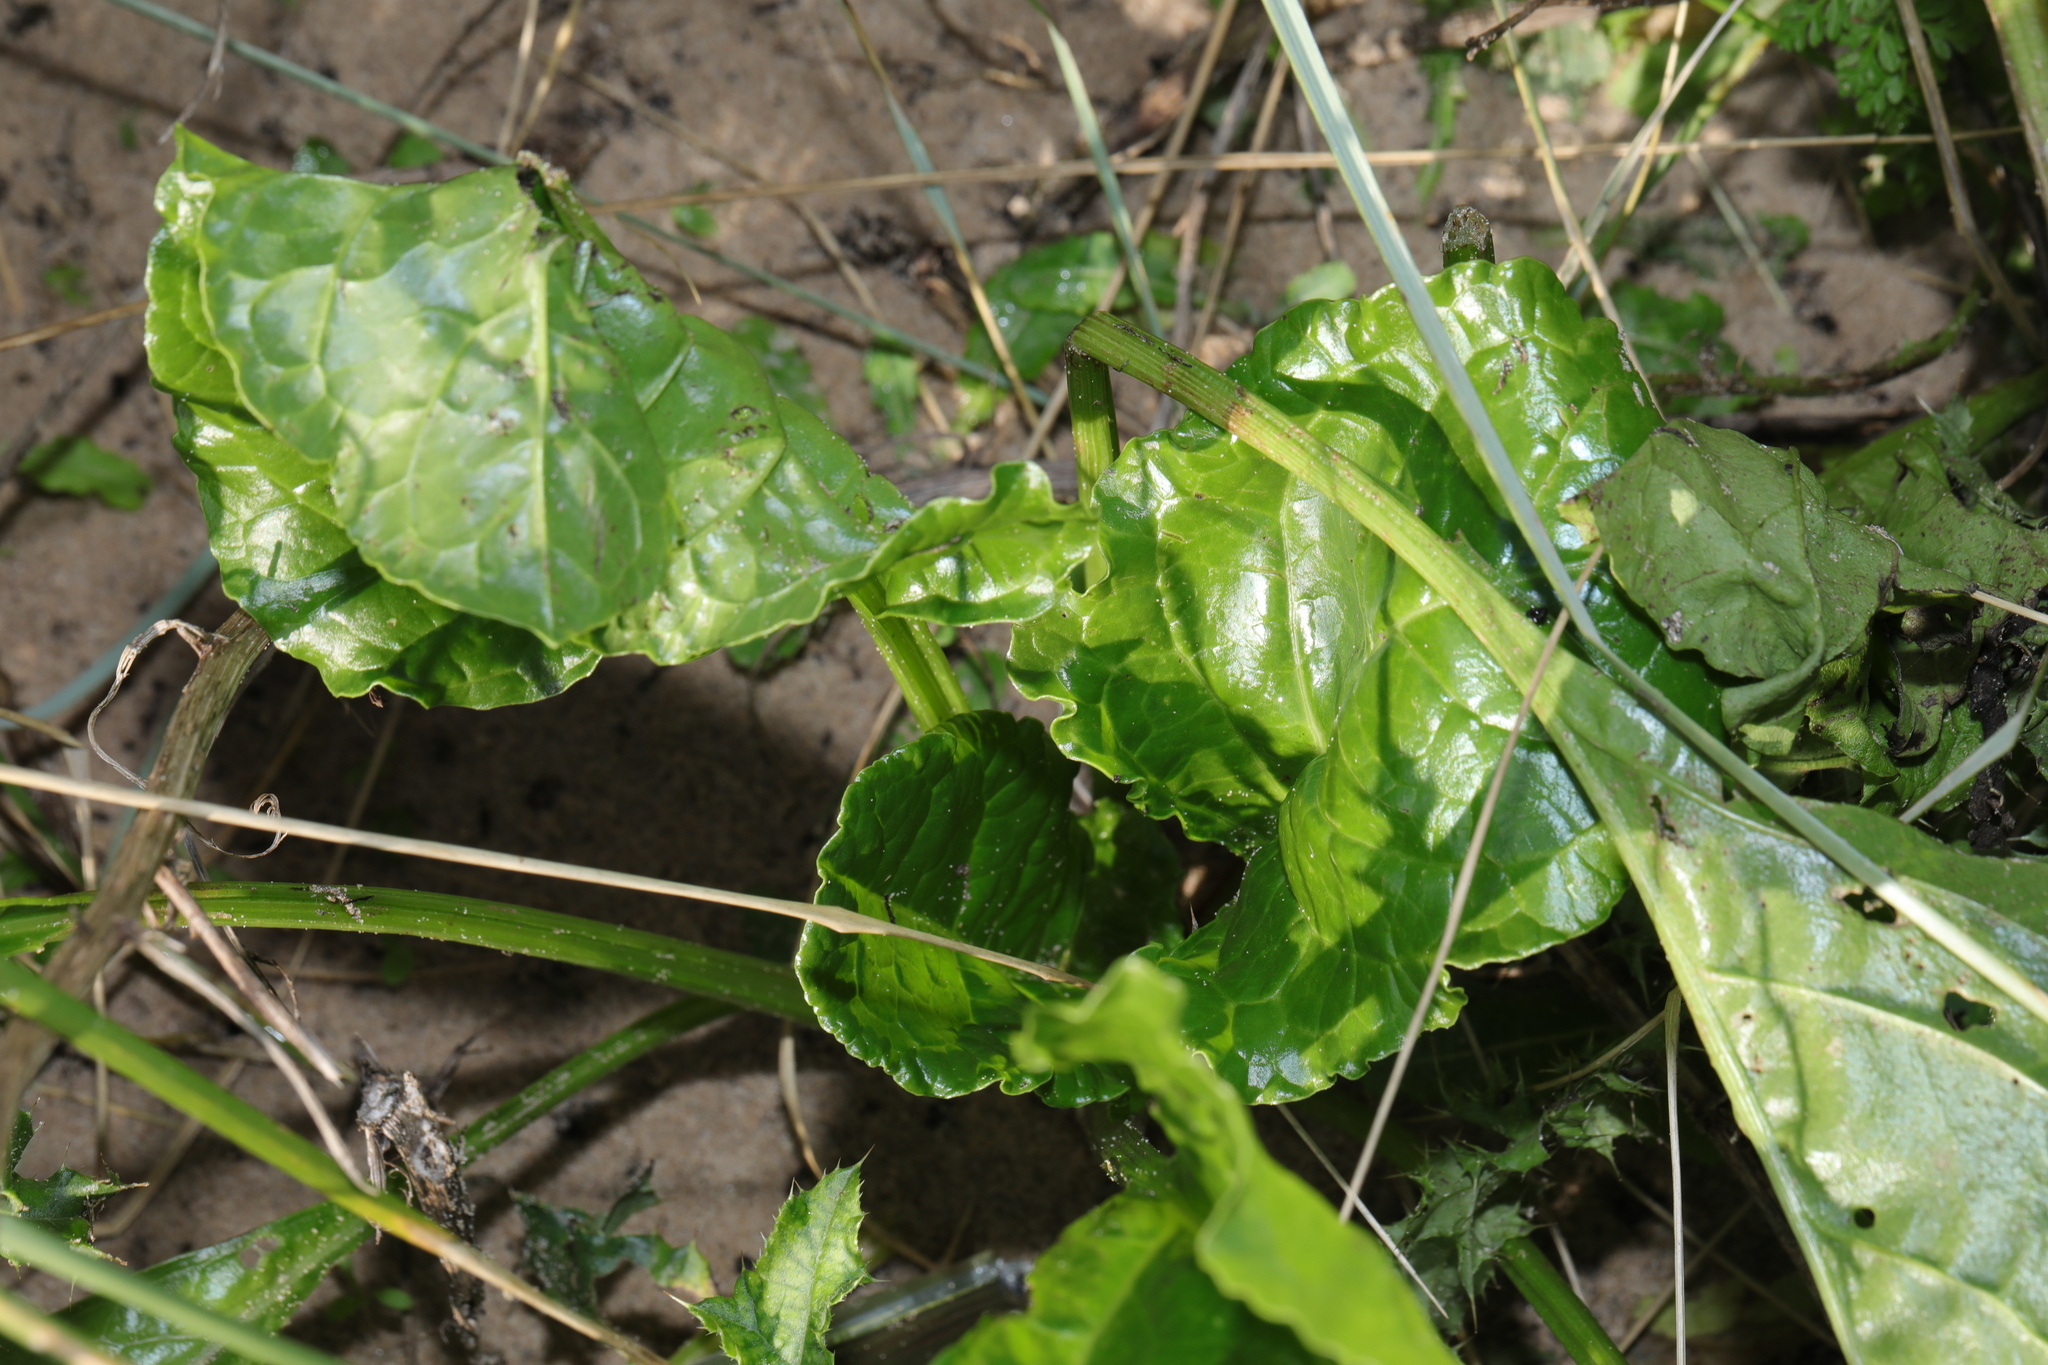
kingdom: Animalia
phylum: Chordata
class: Aves
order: Charadriiformes
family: Scolopacidae
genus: Numenius
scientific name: Numenius arquata
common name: Eurasian curlew
